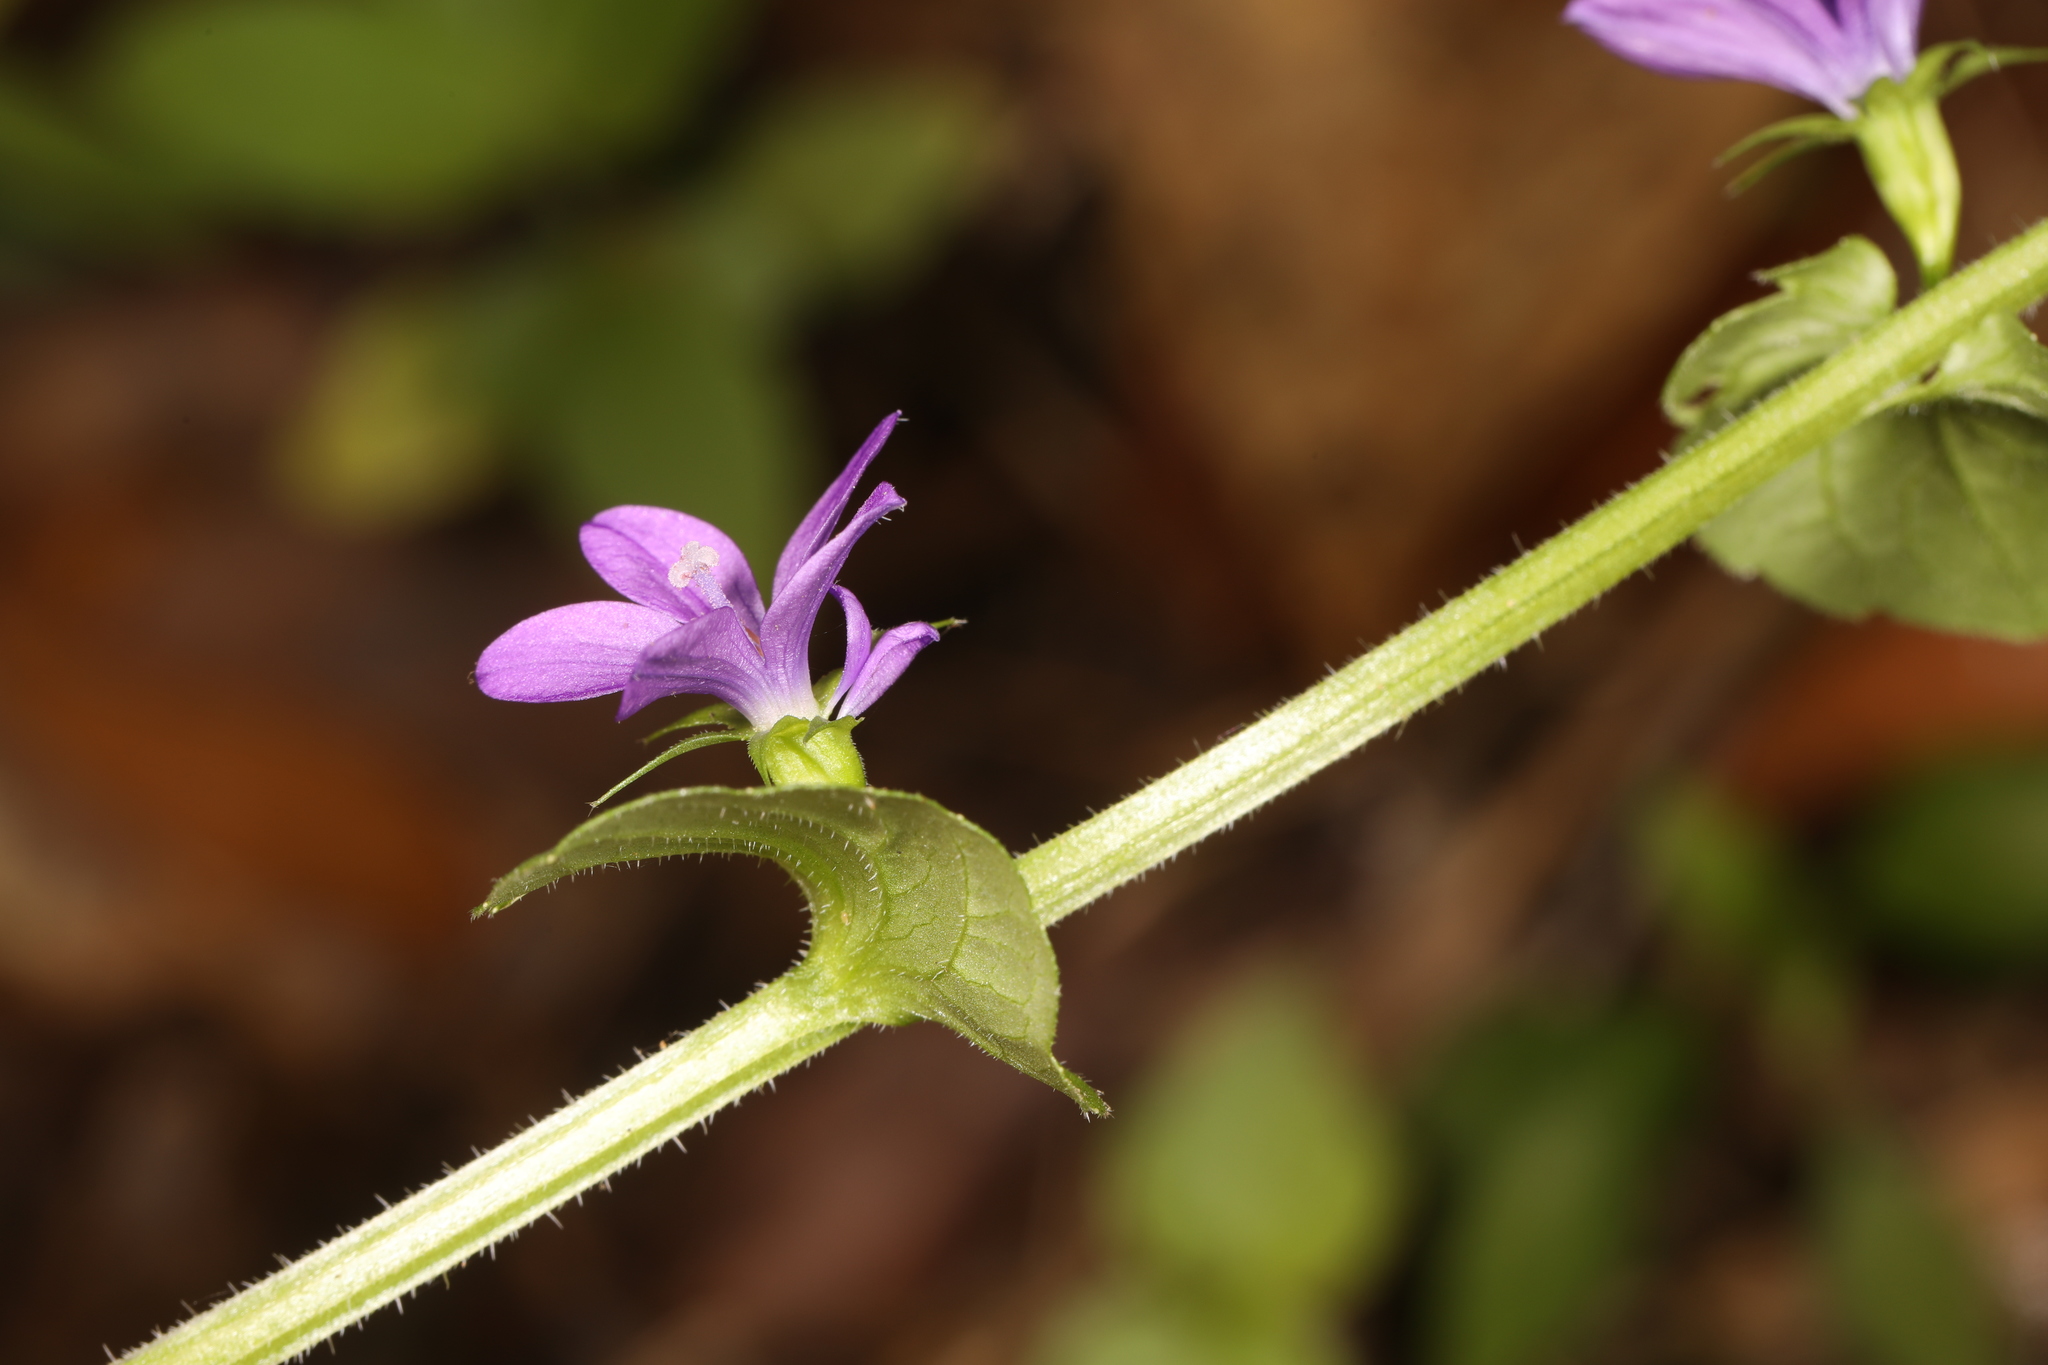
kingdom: Plantae
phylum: Tracheophyta
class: Magnoliopsida
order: Asterales
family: Campanulaceae
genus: Triodanis
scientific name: Triodanis perfoliata
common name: Clasping venus' looking-glass
